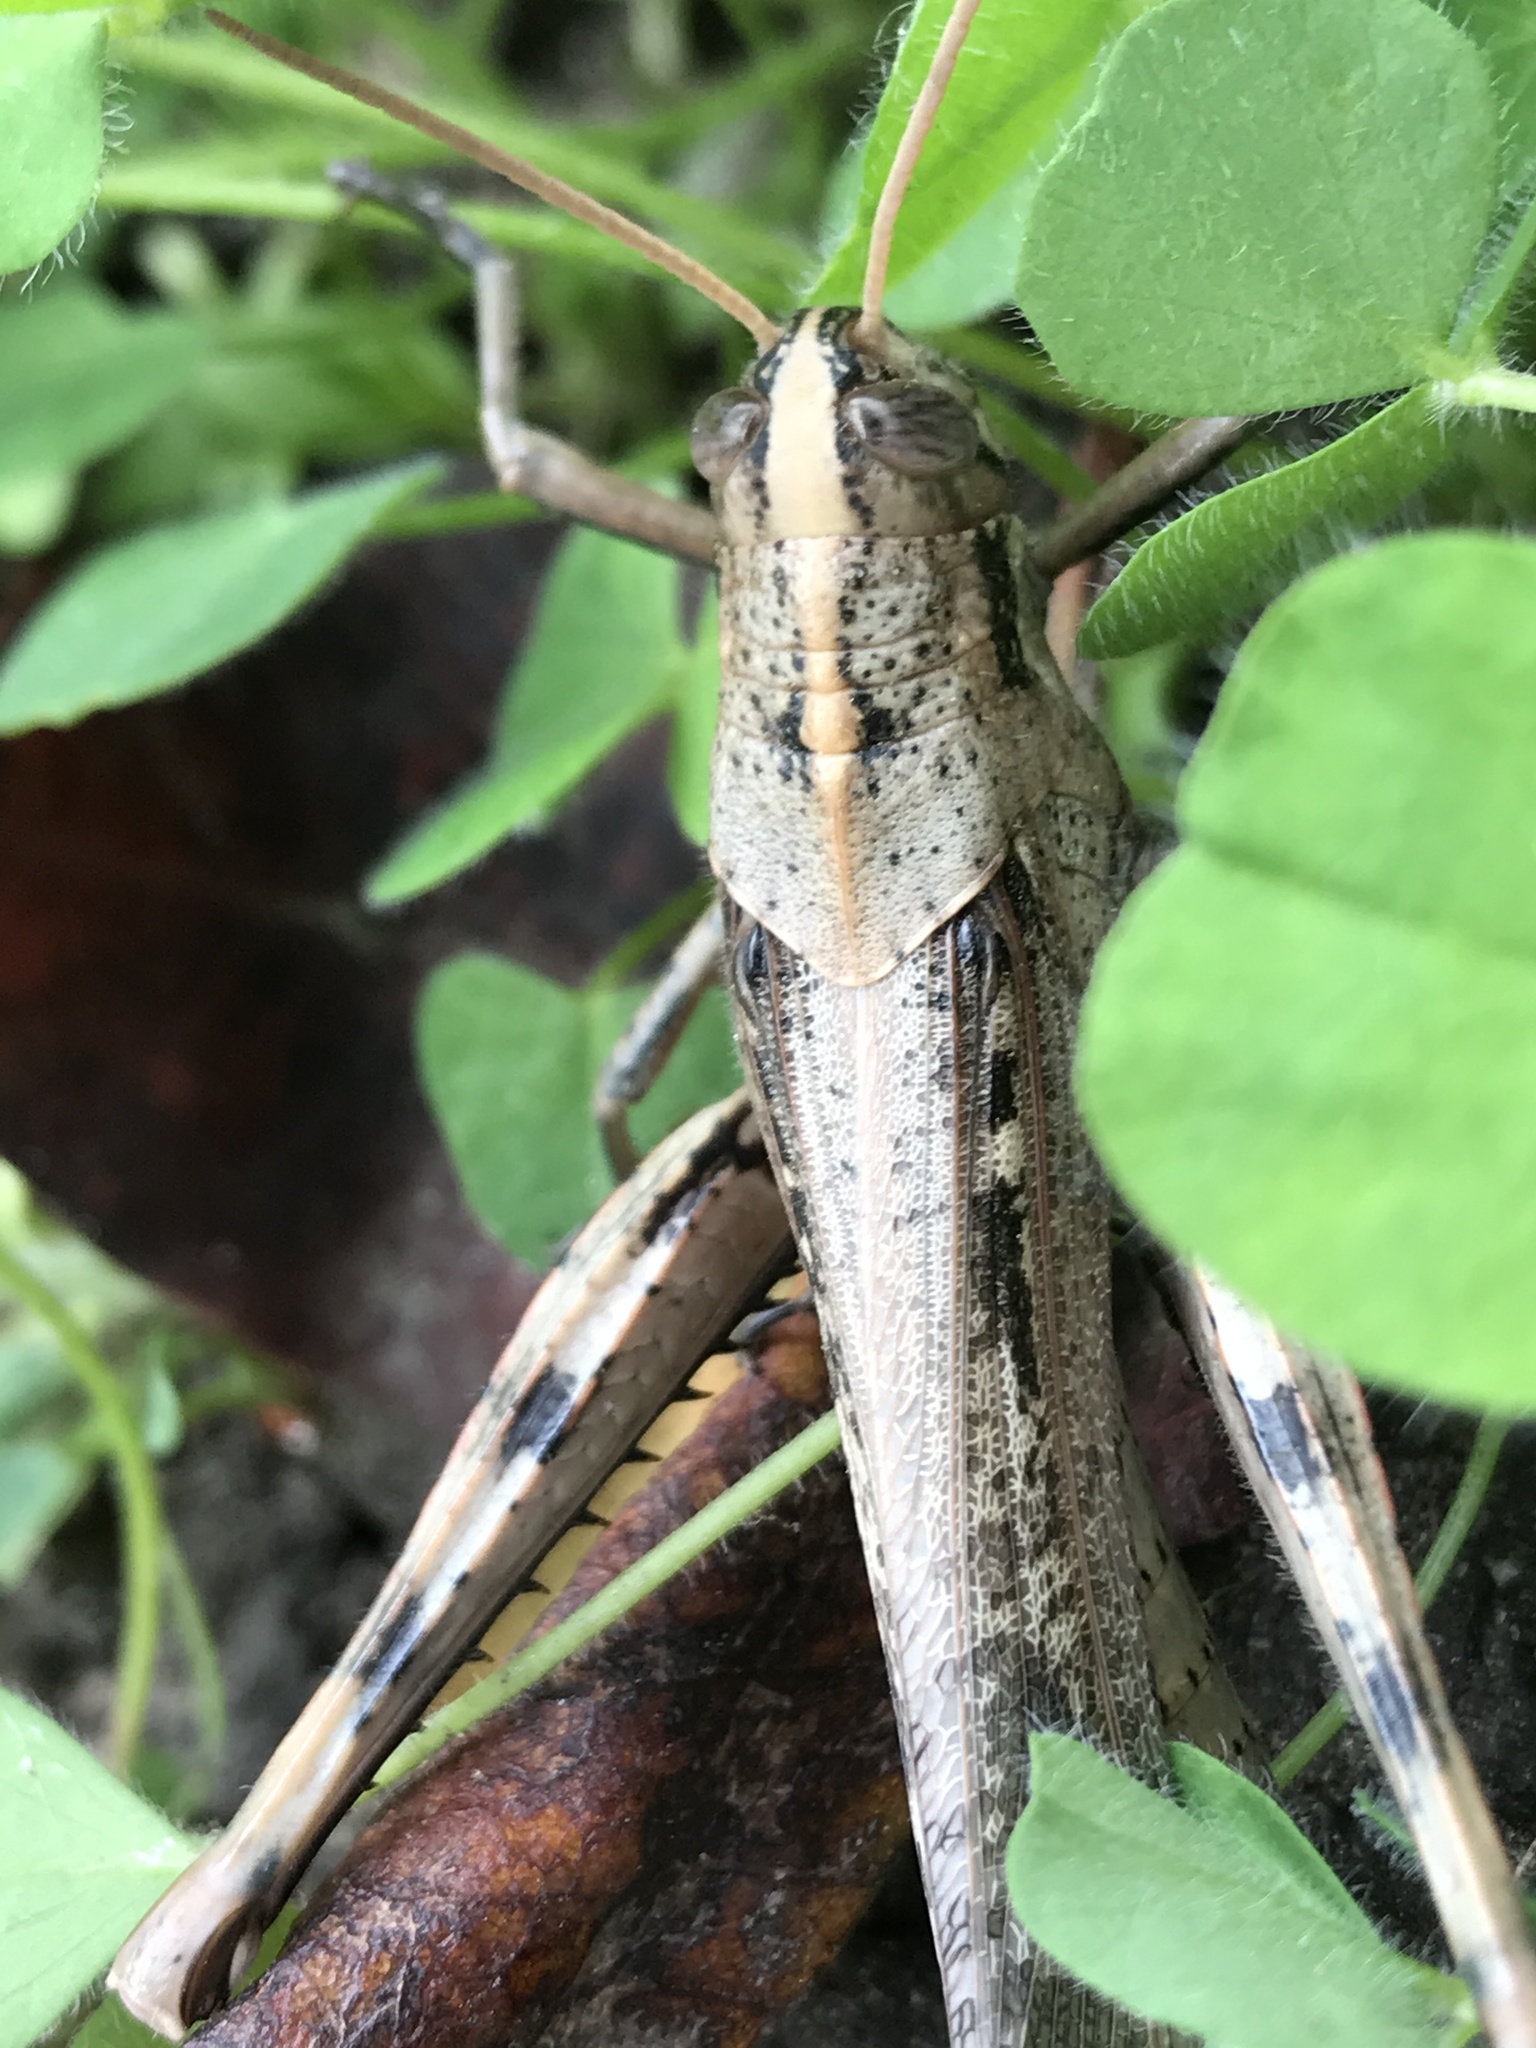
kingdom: Animalia
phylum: Arthropoda
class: Insecta
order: Orthoptera
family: Acrididae
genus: Schistocerca
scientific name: Schistocerca nitens
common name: Vagrant grasshopper
